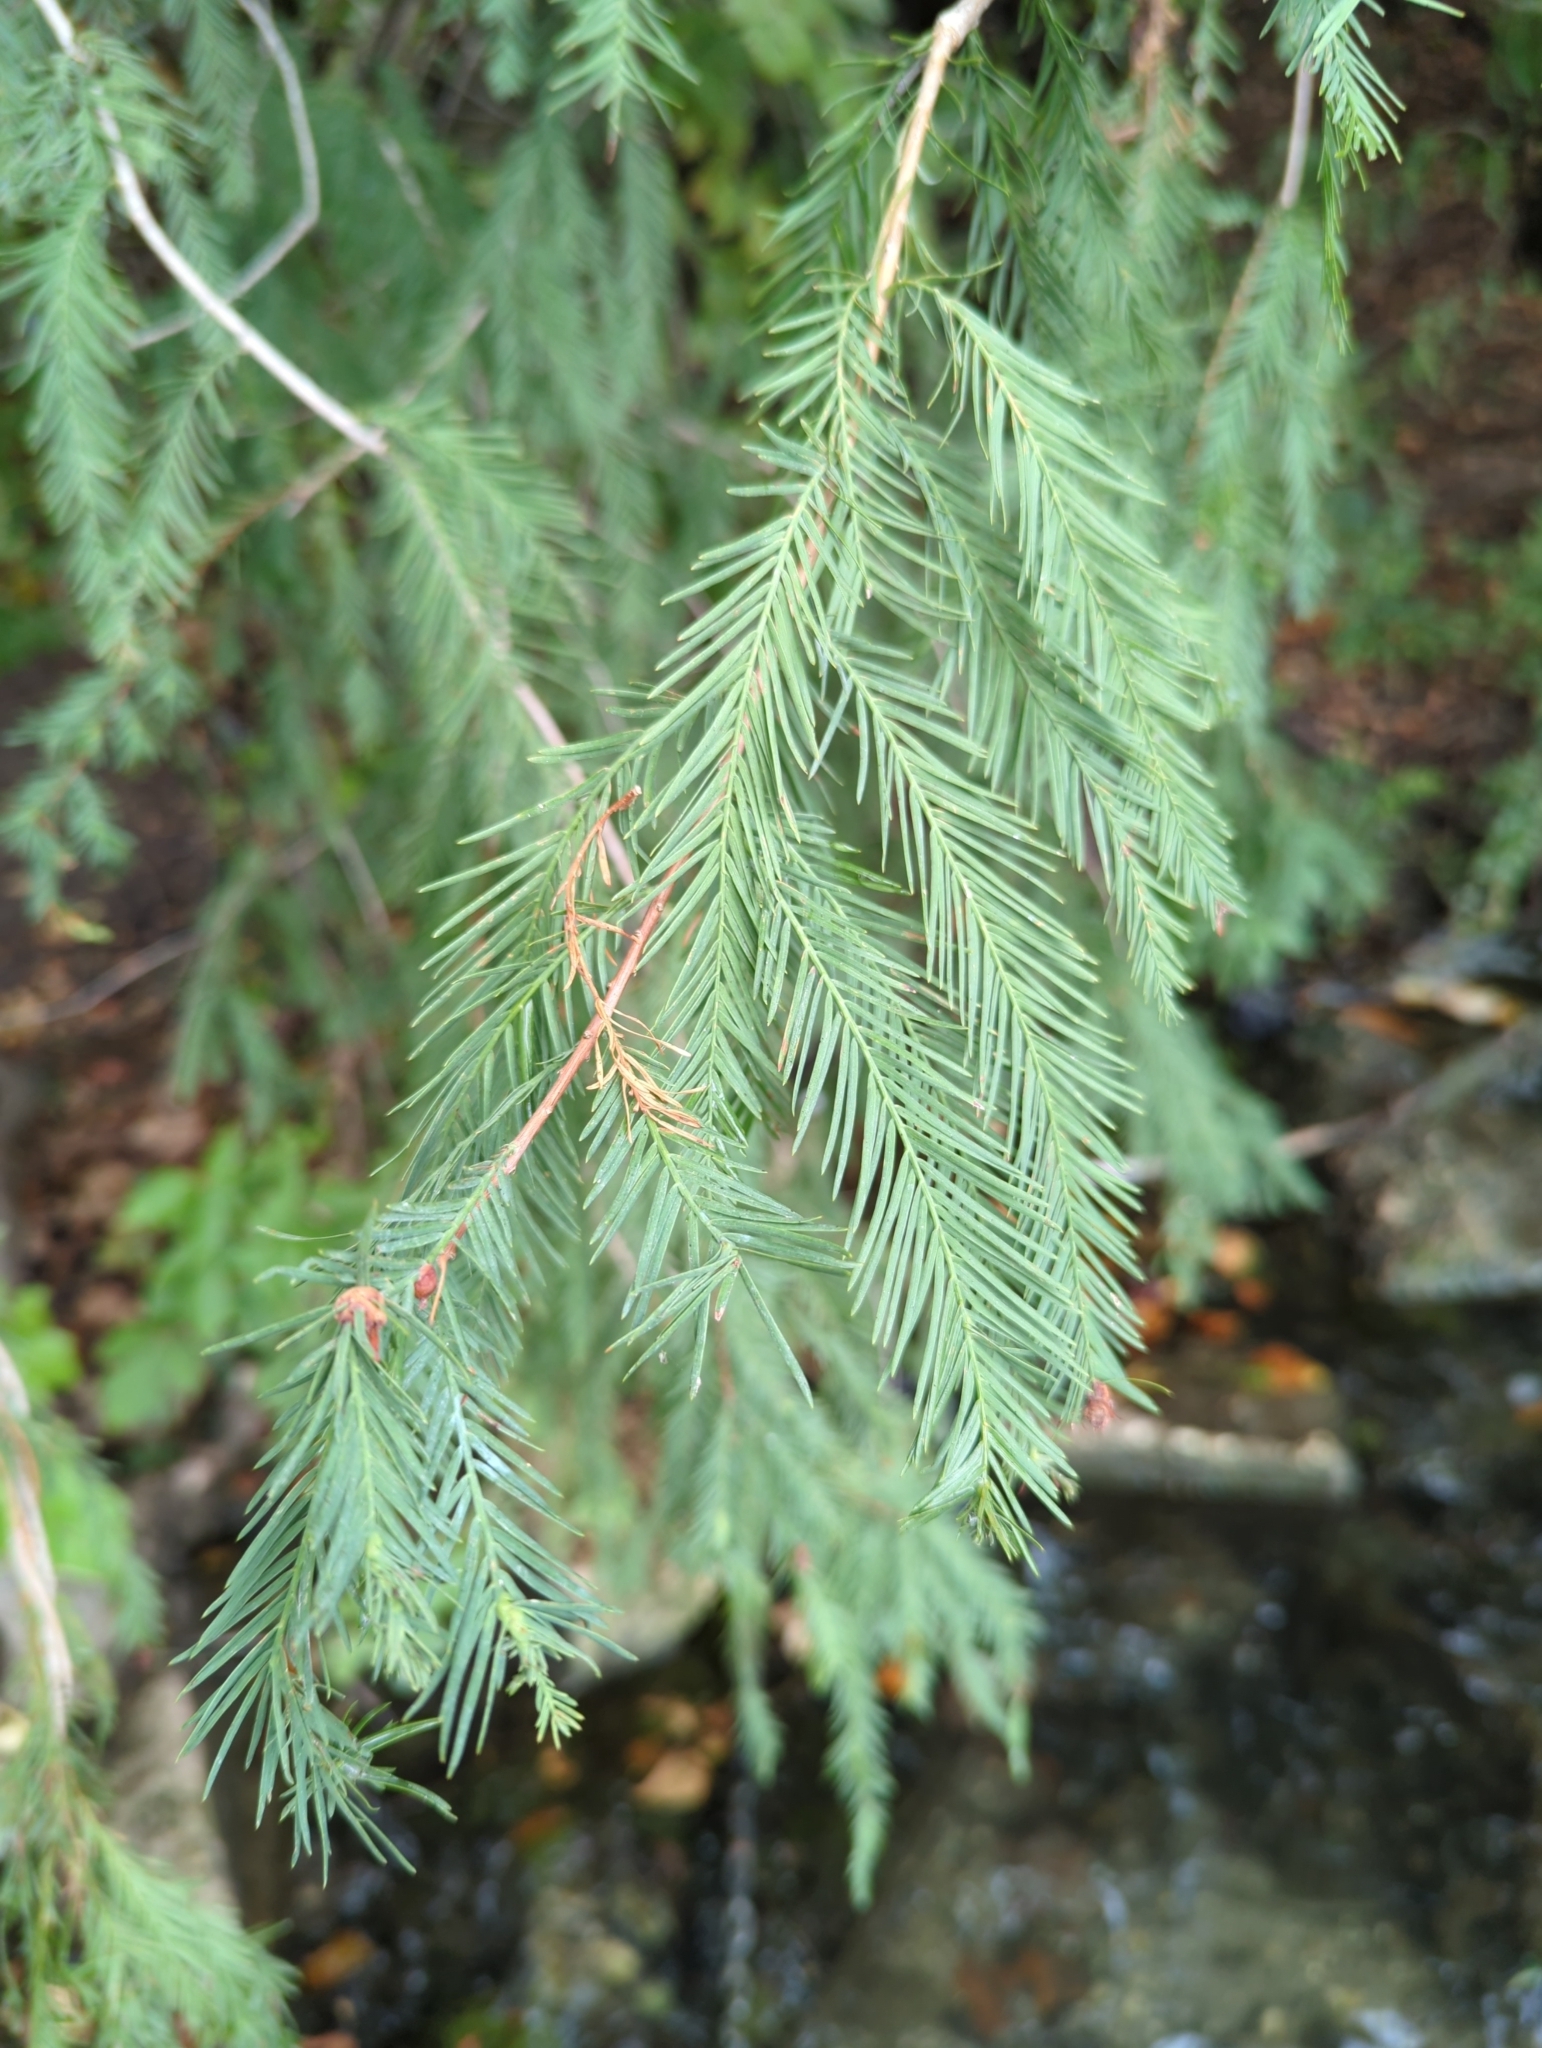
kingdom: Plantae
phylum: Tracheophyta
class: Pinopsida
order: Pinales
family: Cupressaceae
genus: Taxodium
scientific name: Taxodium distichum
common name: Bald cypress
